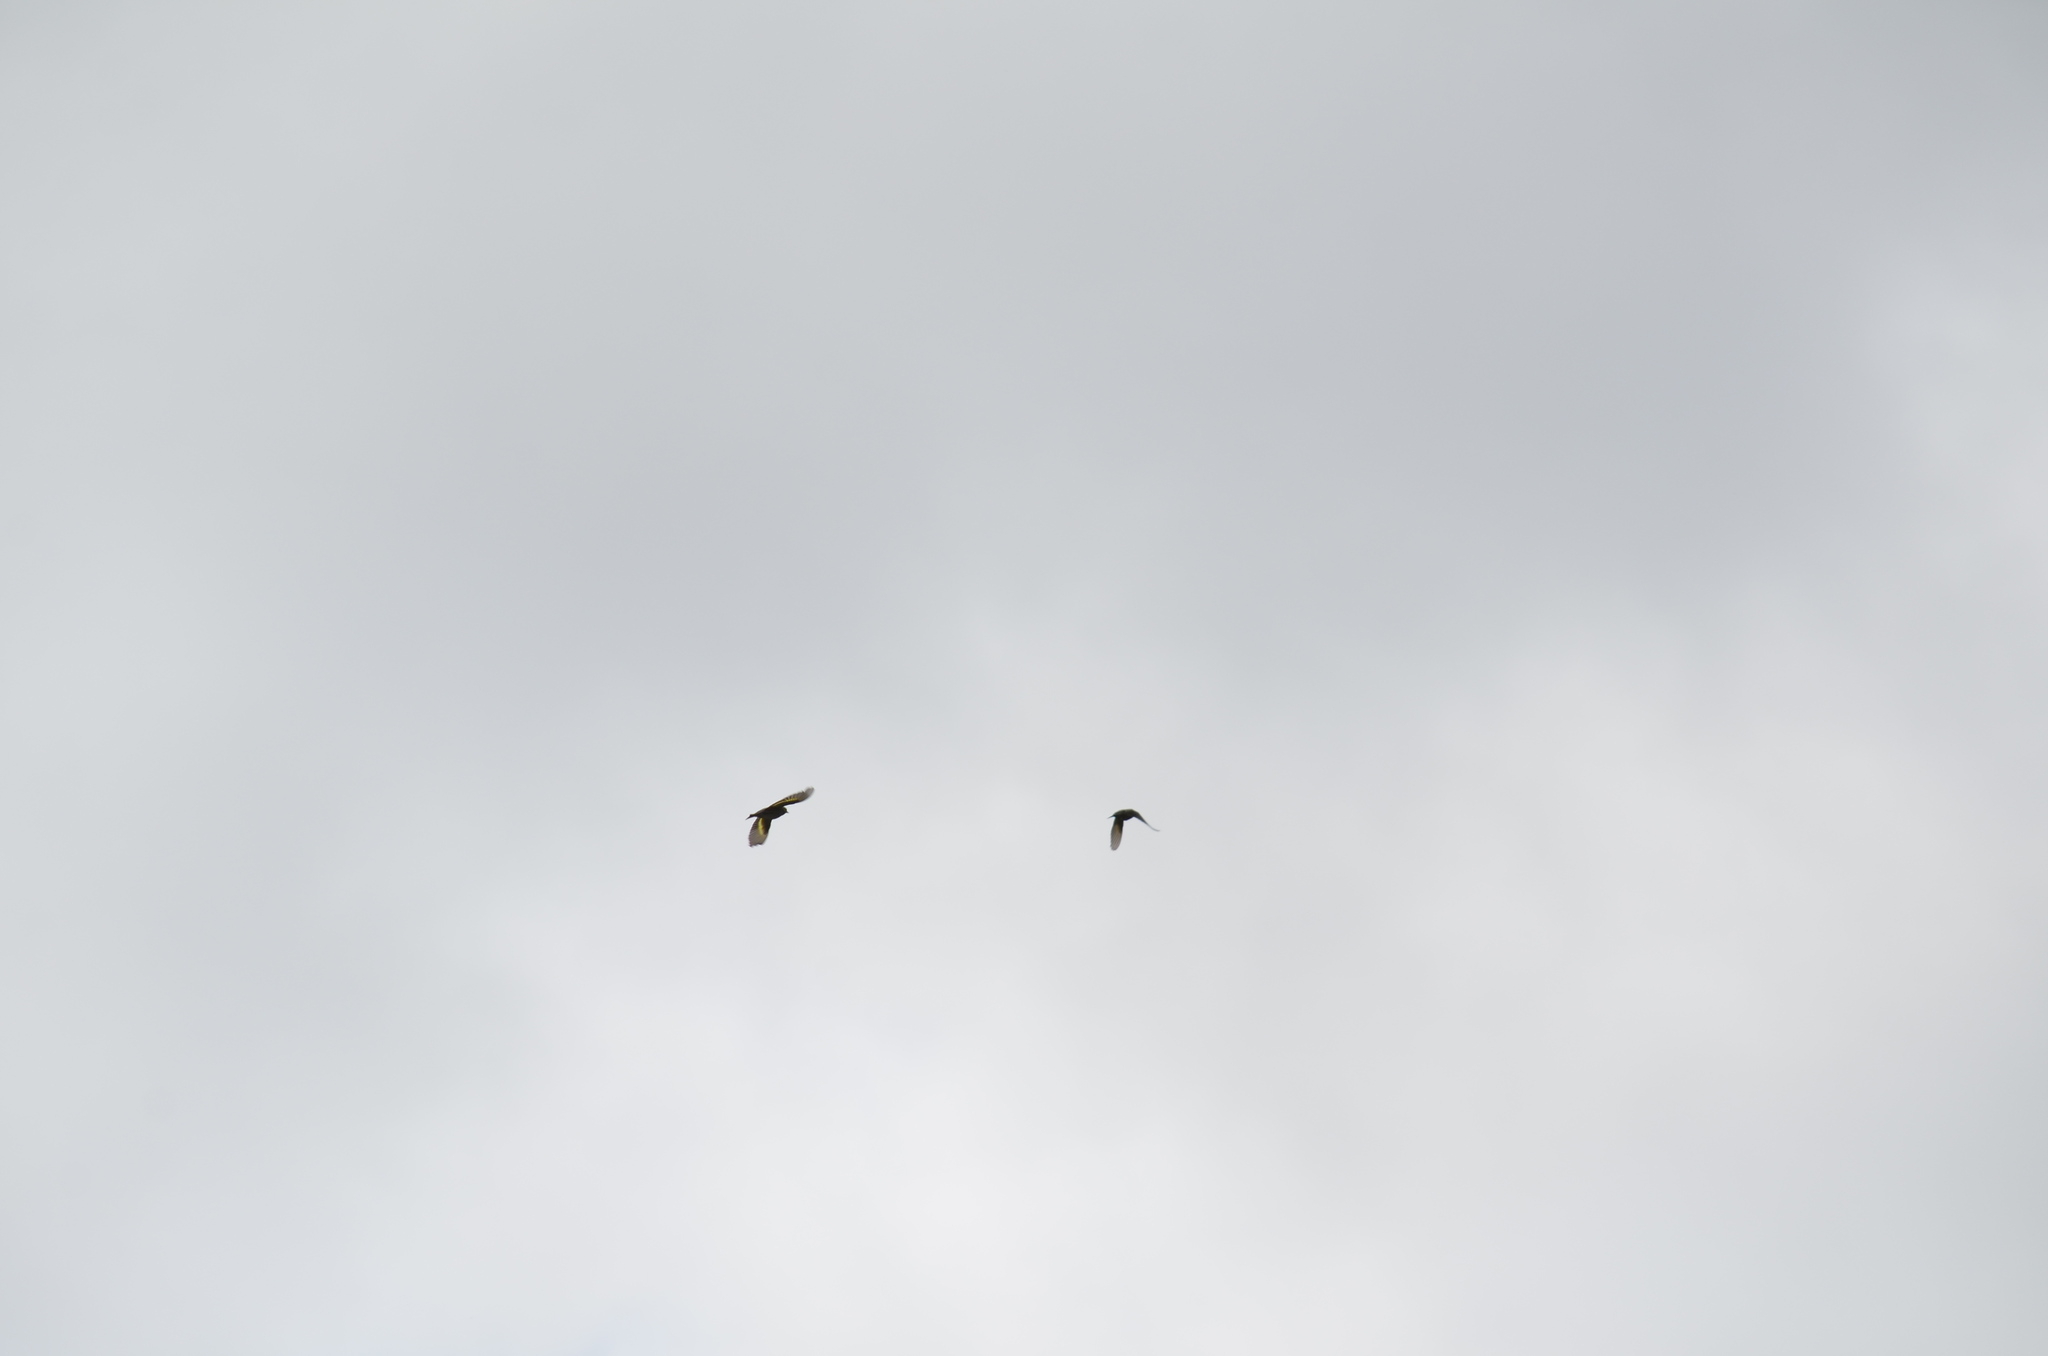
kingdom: Animalia
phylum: Chordata
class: Aves
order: Passeriformes
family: Fringillidae
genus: Spinus
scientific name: Spinus pinus
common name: Pine siskin
